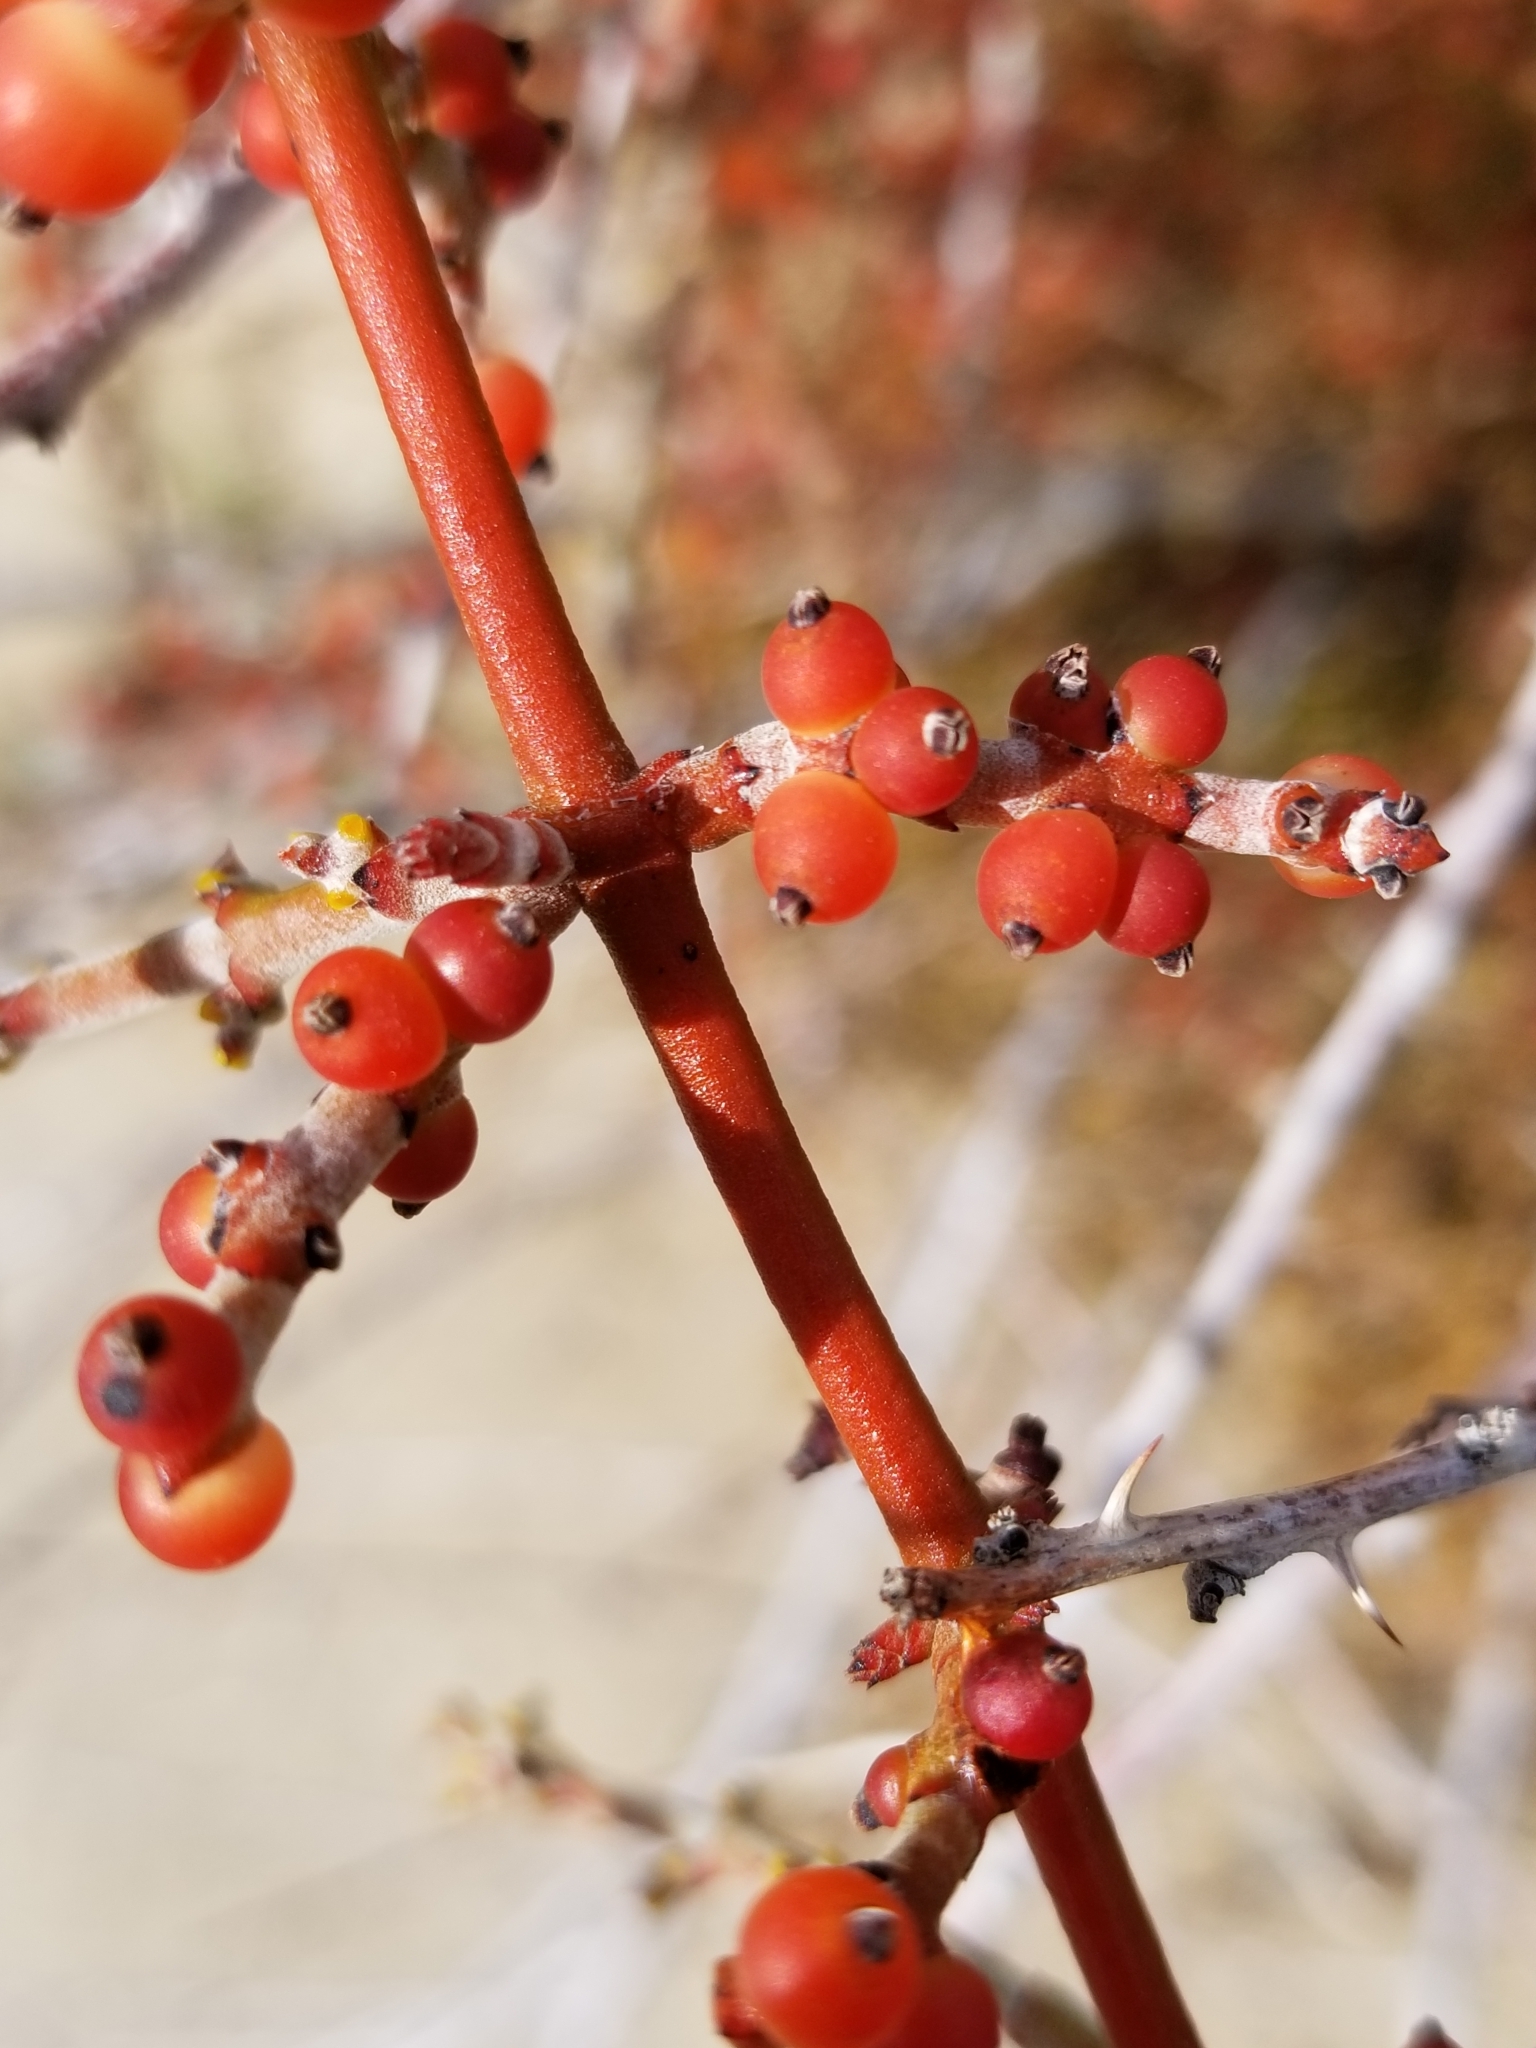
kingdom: Plantae
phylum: Tracheophyta
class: Magnoliopsida
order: Santalales
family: Viscaceae
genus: Phoradendron
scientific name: Phoradendron californicum
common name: Acacia mistletoe
